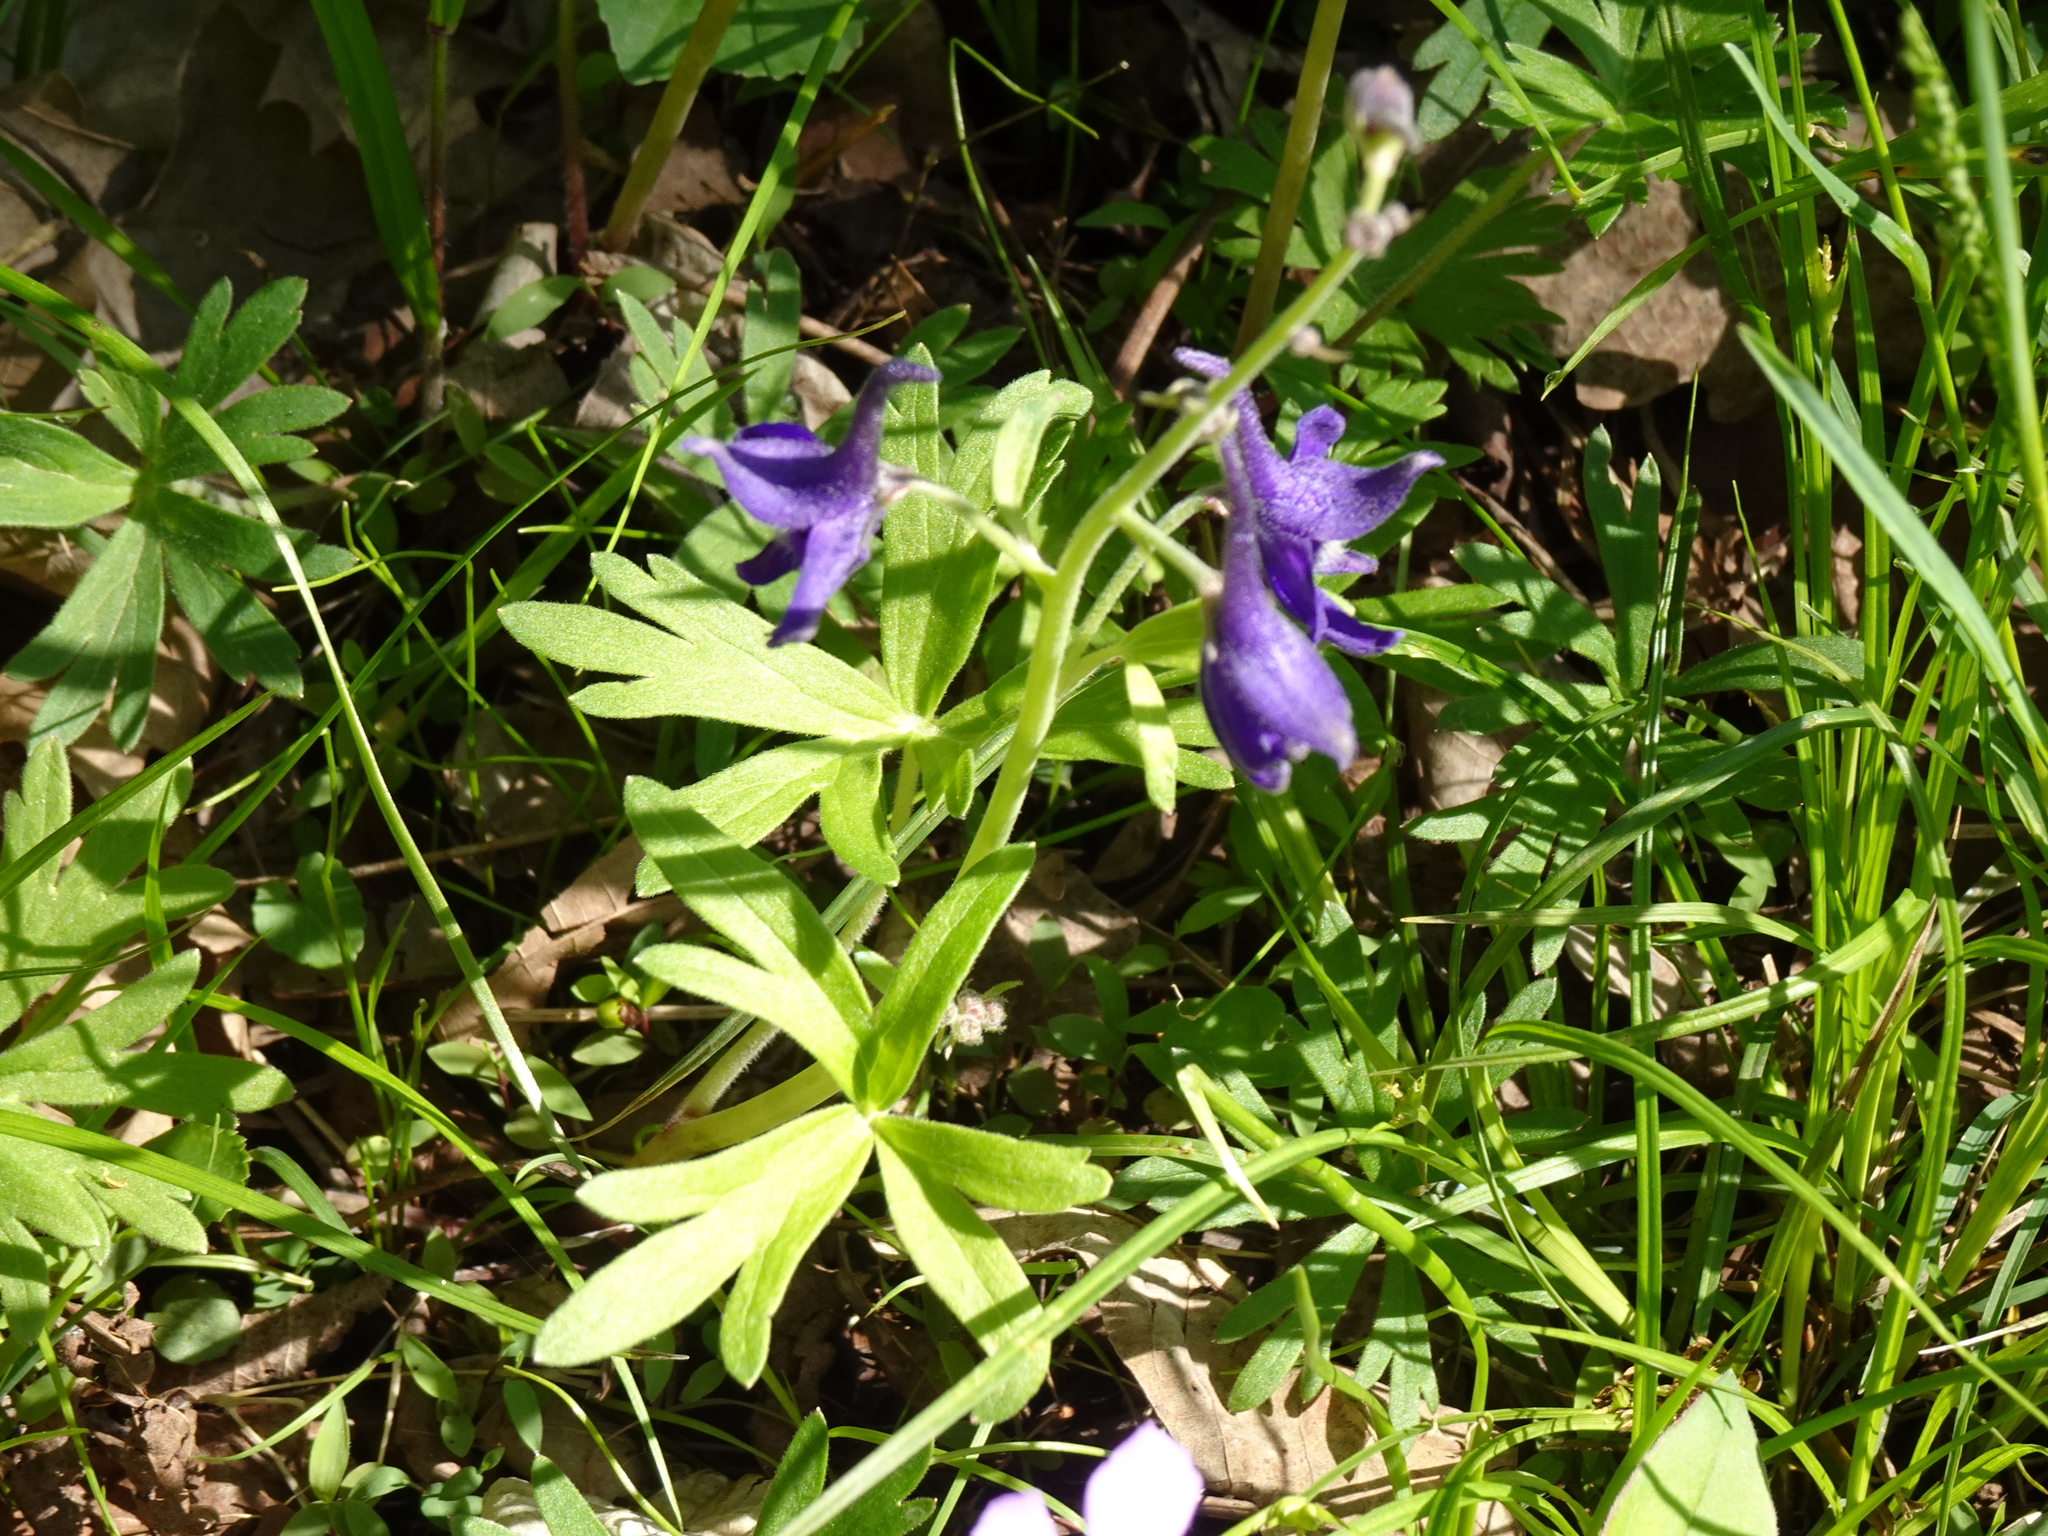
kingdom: Plantae
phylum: Tracheophyta
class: Magnoliopsida
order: Ranunculales
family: Ranunculaceae
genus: Delphinium
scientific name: Delphinium tricorne
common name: Dwarf larkspur
